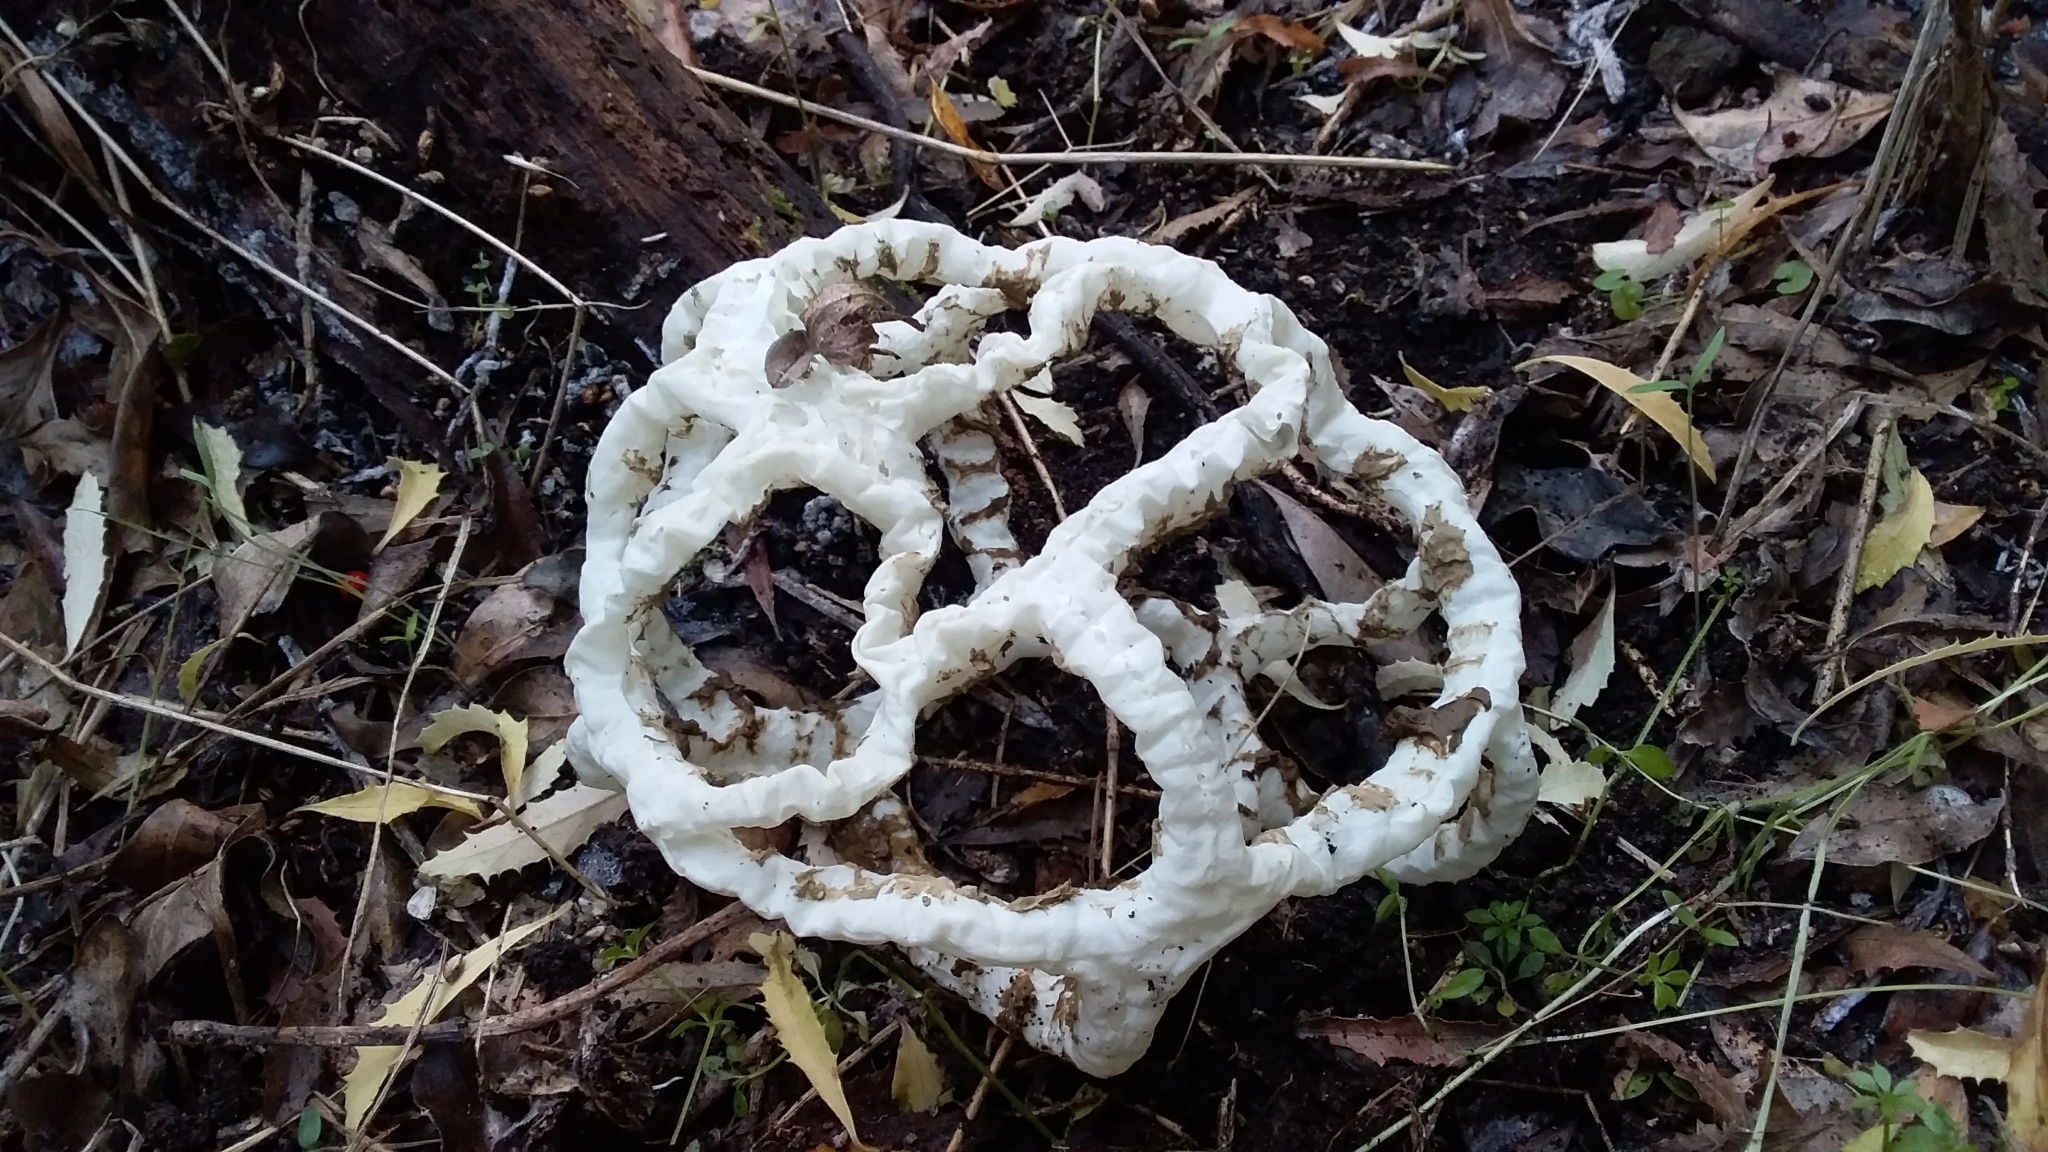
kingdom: Fungi
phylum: Basidiomycota
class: Agaricomycetes
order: Phallales
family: Phallaceae
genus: Ileodictyon
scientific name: Ileodictyon cibarium
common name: Basket fungus
